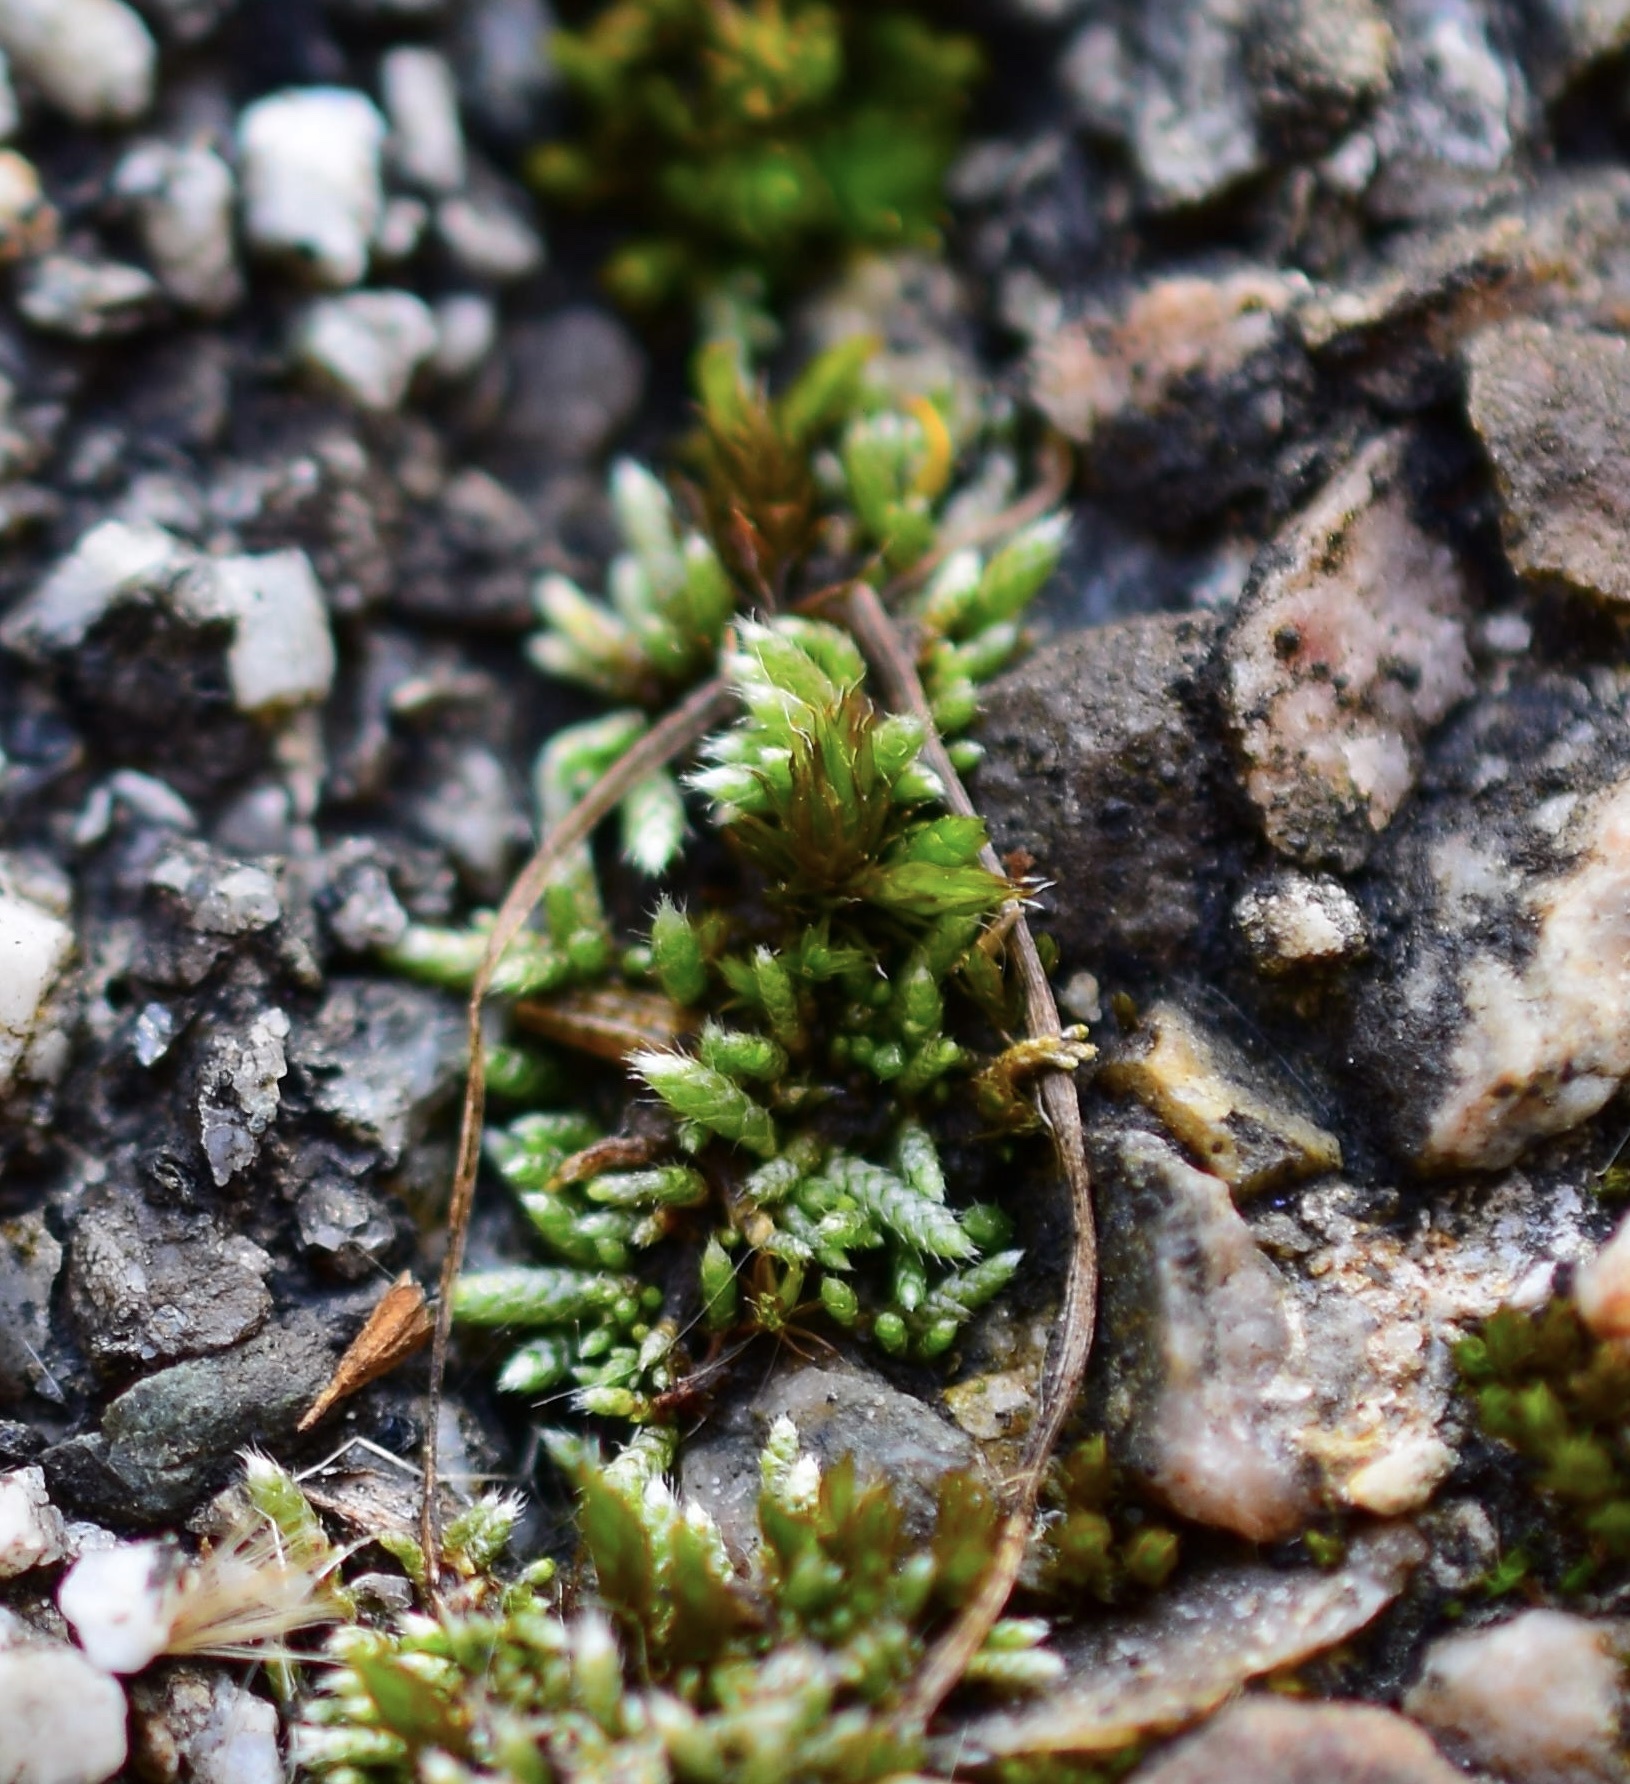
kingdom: Plantae
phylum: Bryophyta
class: Bryopsida
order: Bryales
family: Bryaceae
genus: Bryum
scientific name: Bryum argenteum
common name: Silver-moss
